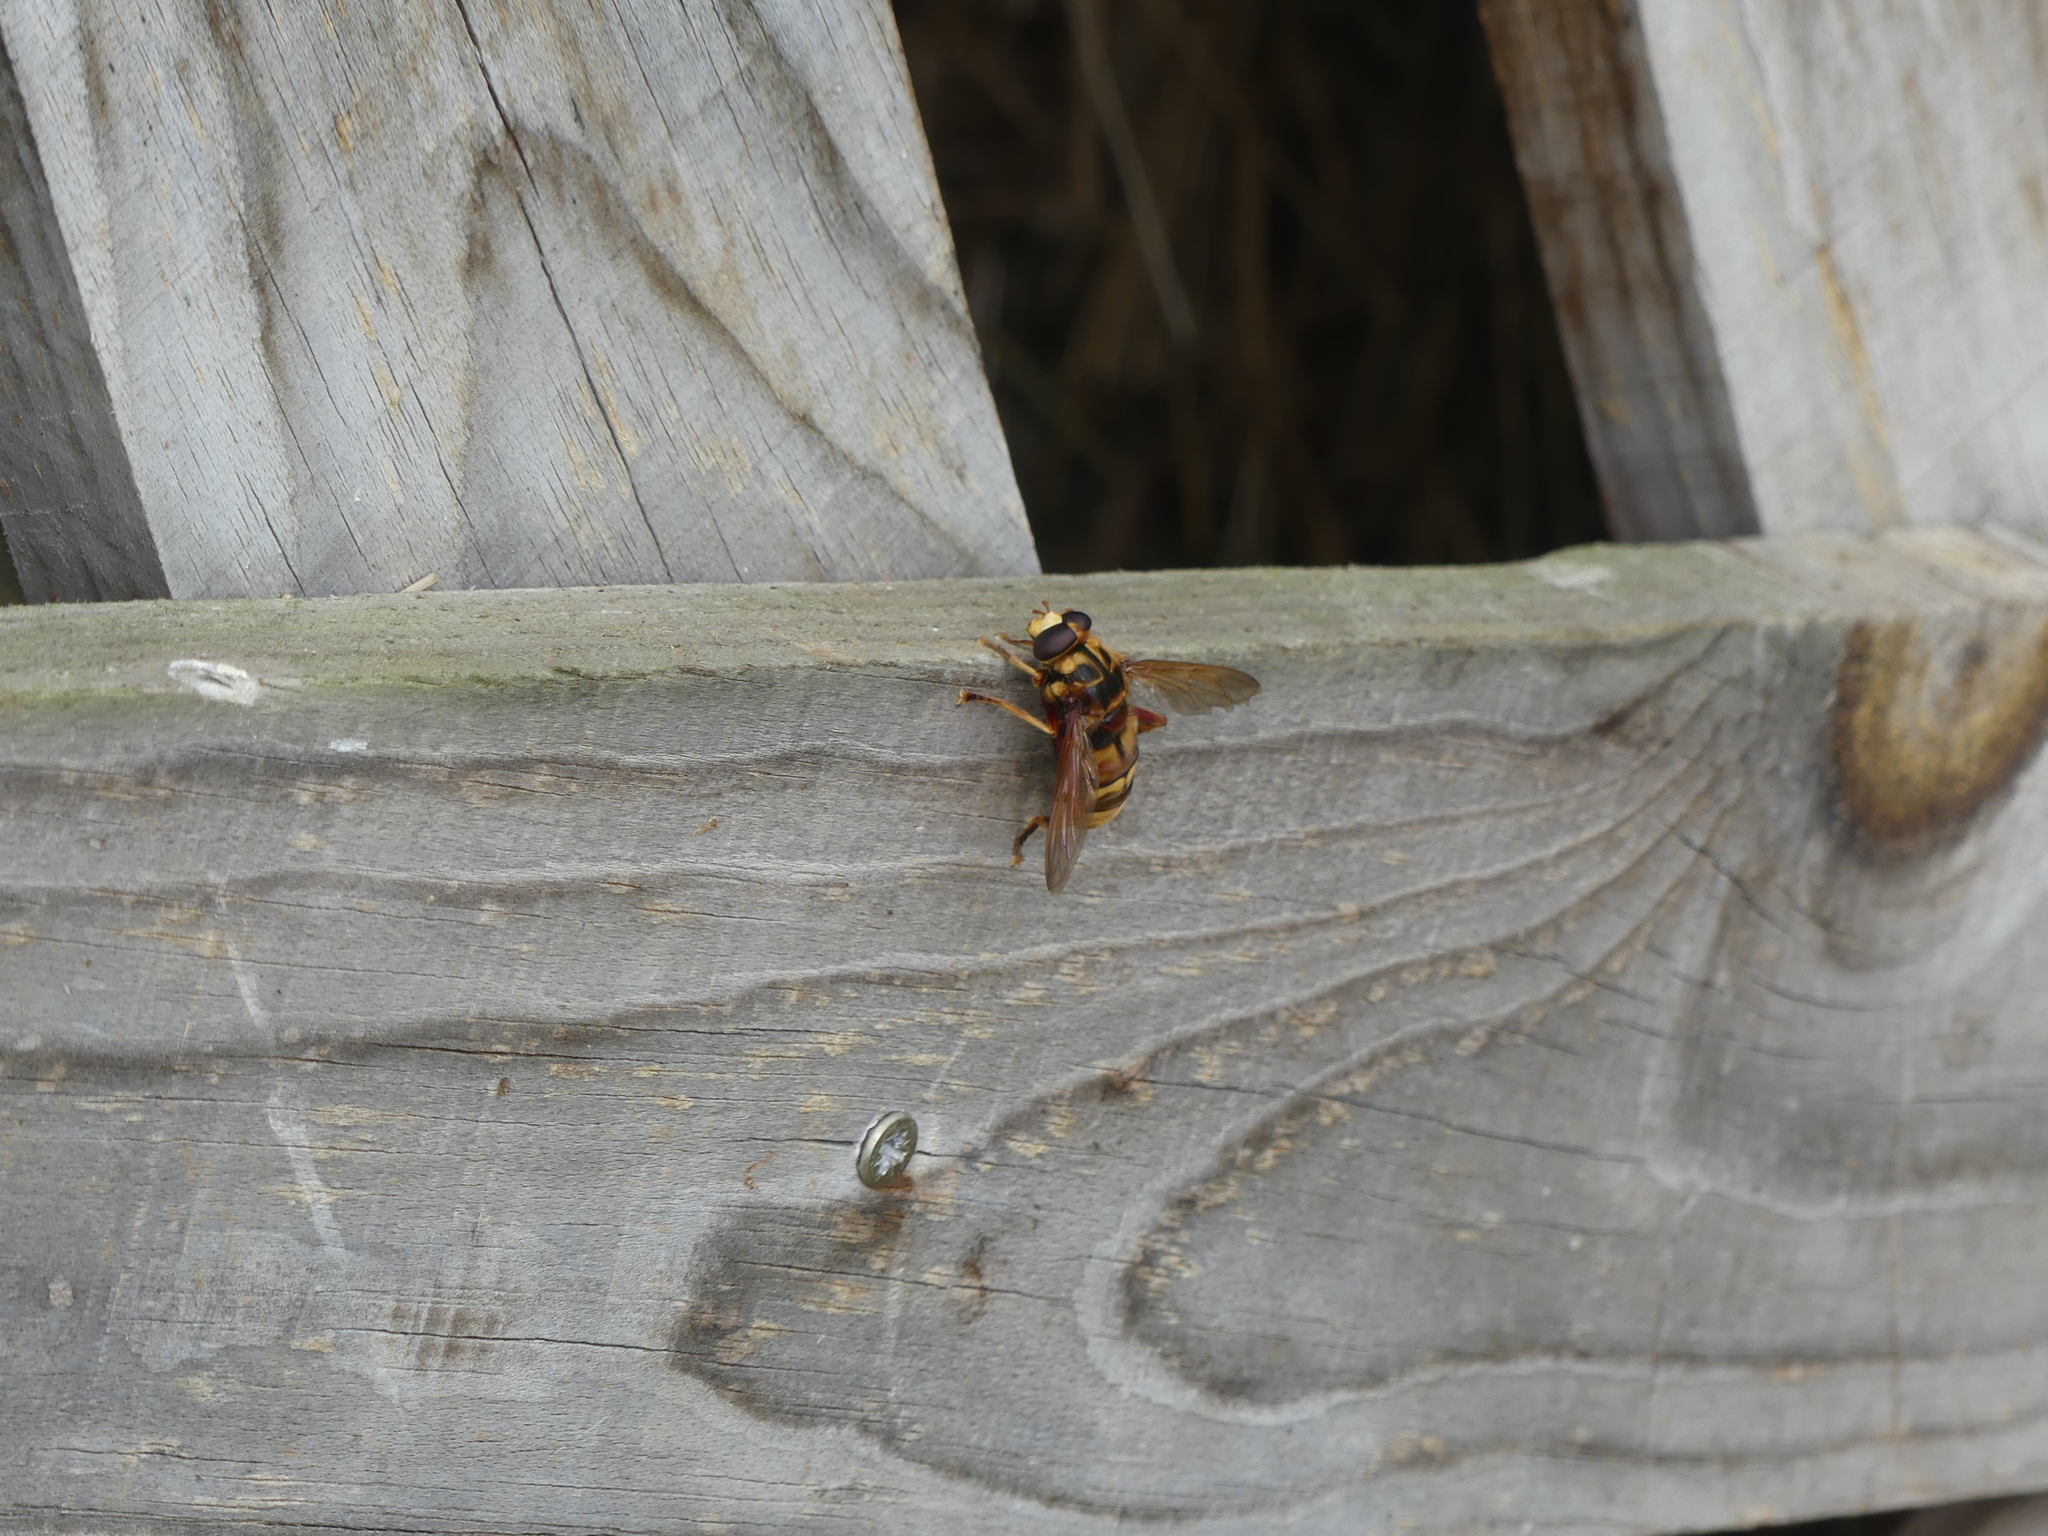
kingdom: Animalia
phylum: Arthropoda
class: Insecta
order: Diptera
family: Syrphidae
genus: Milesia
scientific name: Milesia crabroniformis
